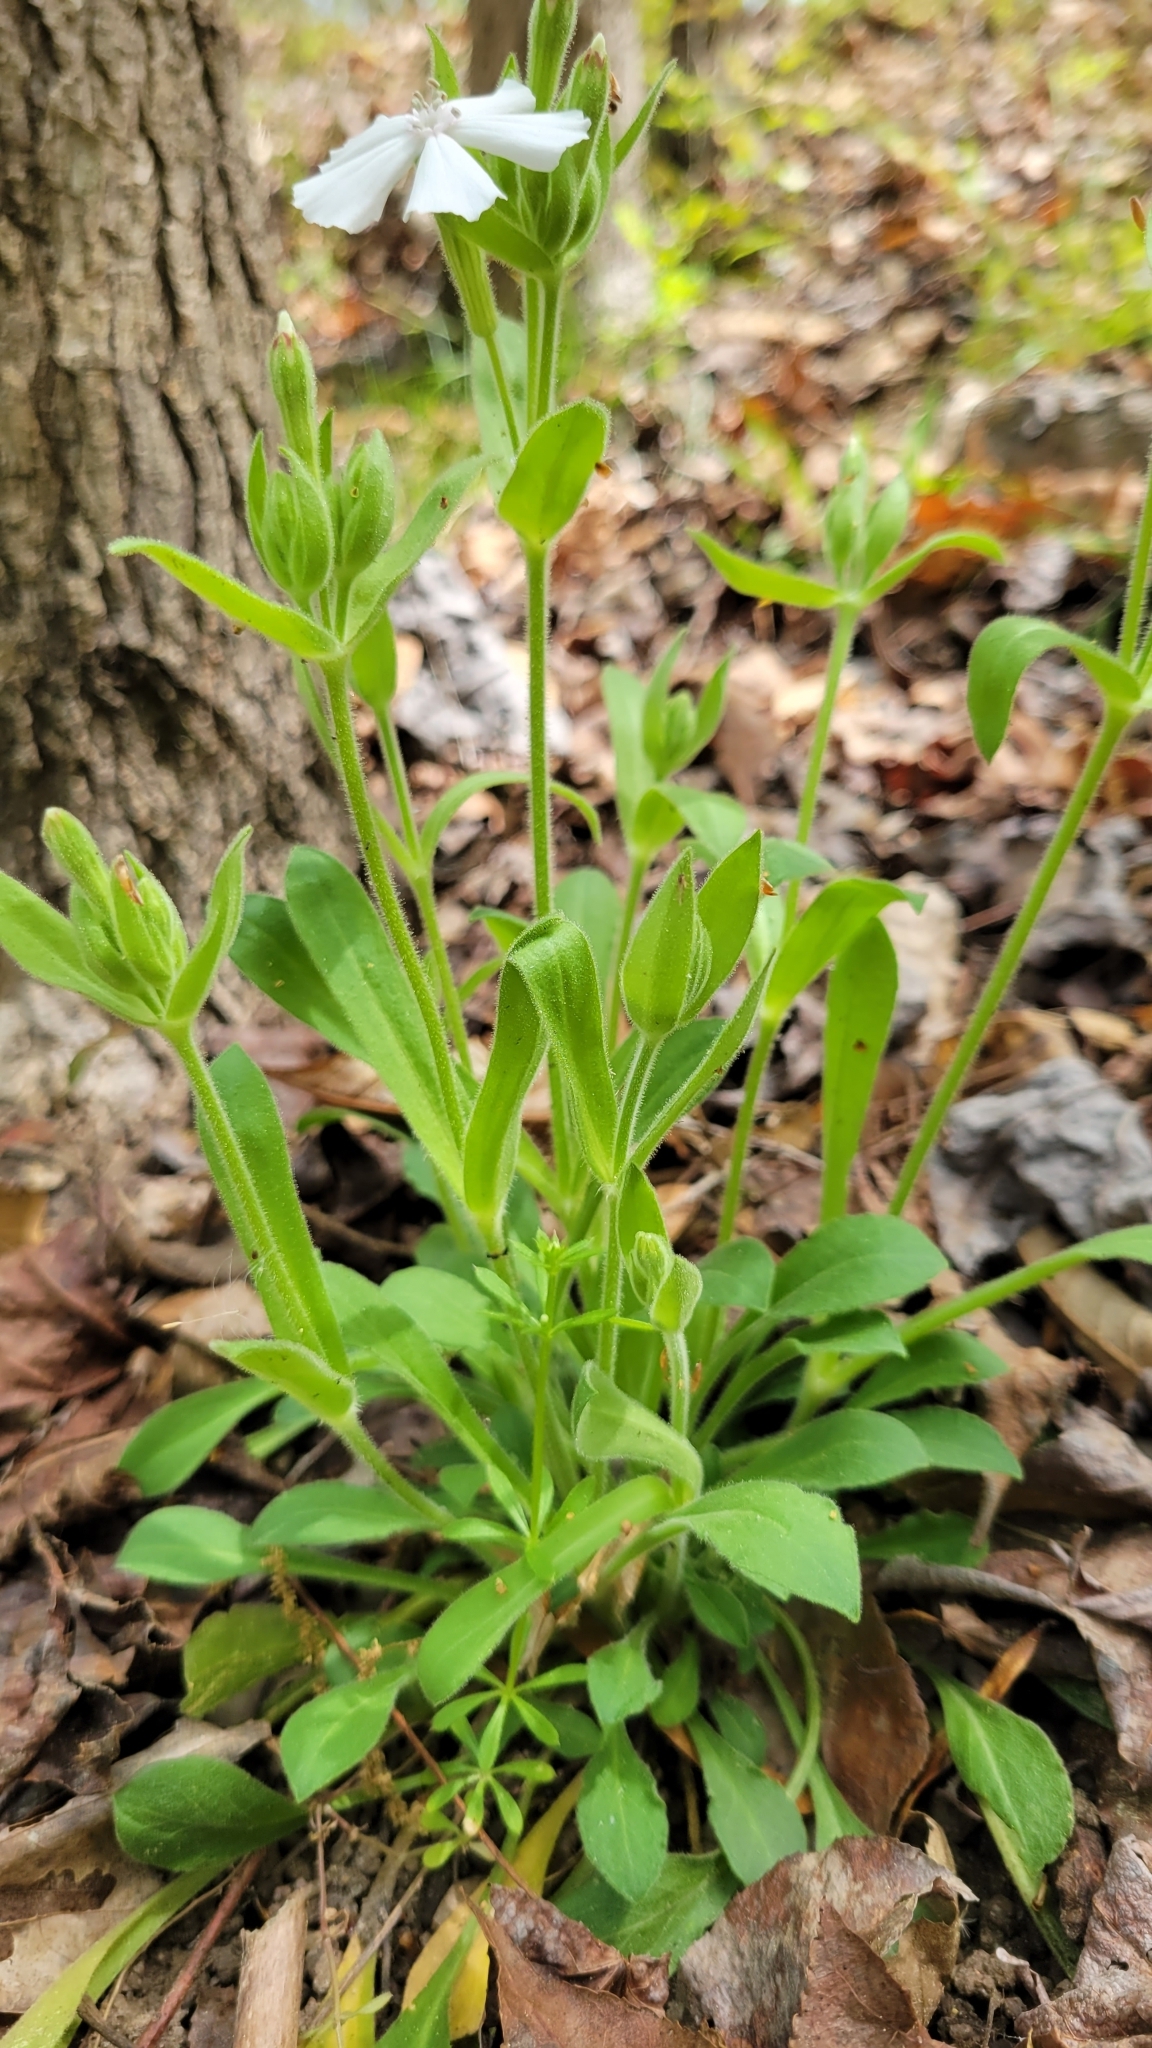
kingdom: Plantae
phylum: Tracheophyta
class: Magnoliopsida
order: Caryophyllales
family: Caryophyllaceae
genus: Silene
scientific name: Silene caroliniana
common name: Sticky catchfly
